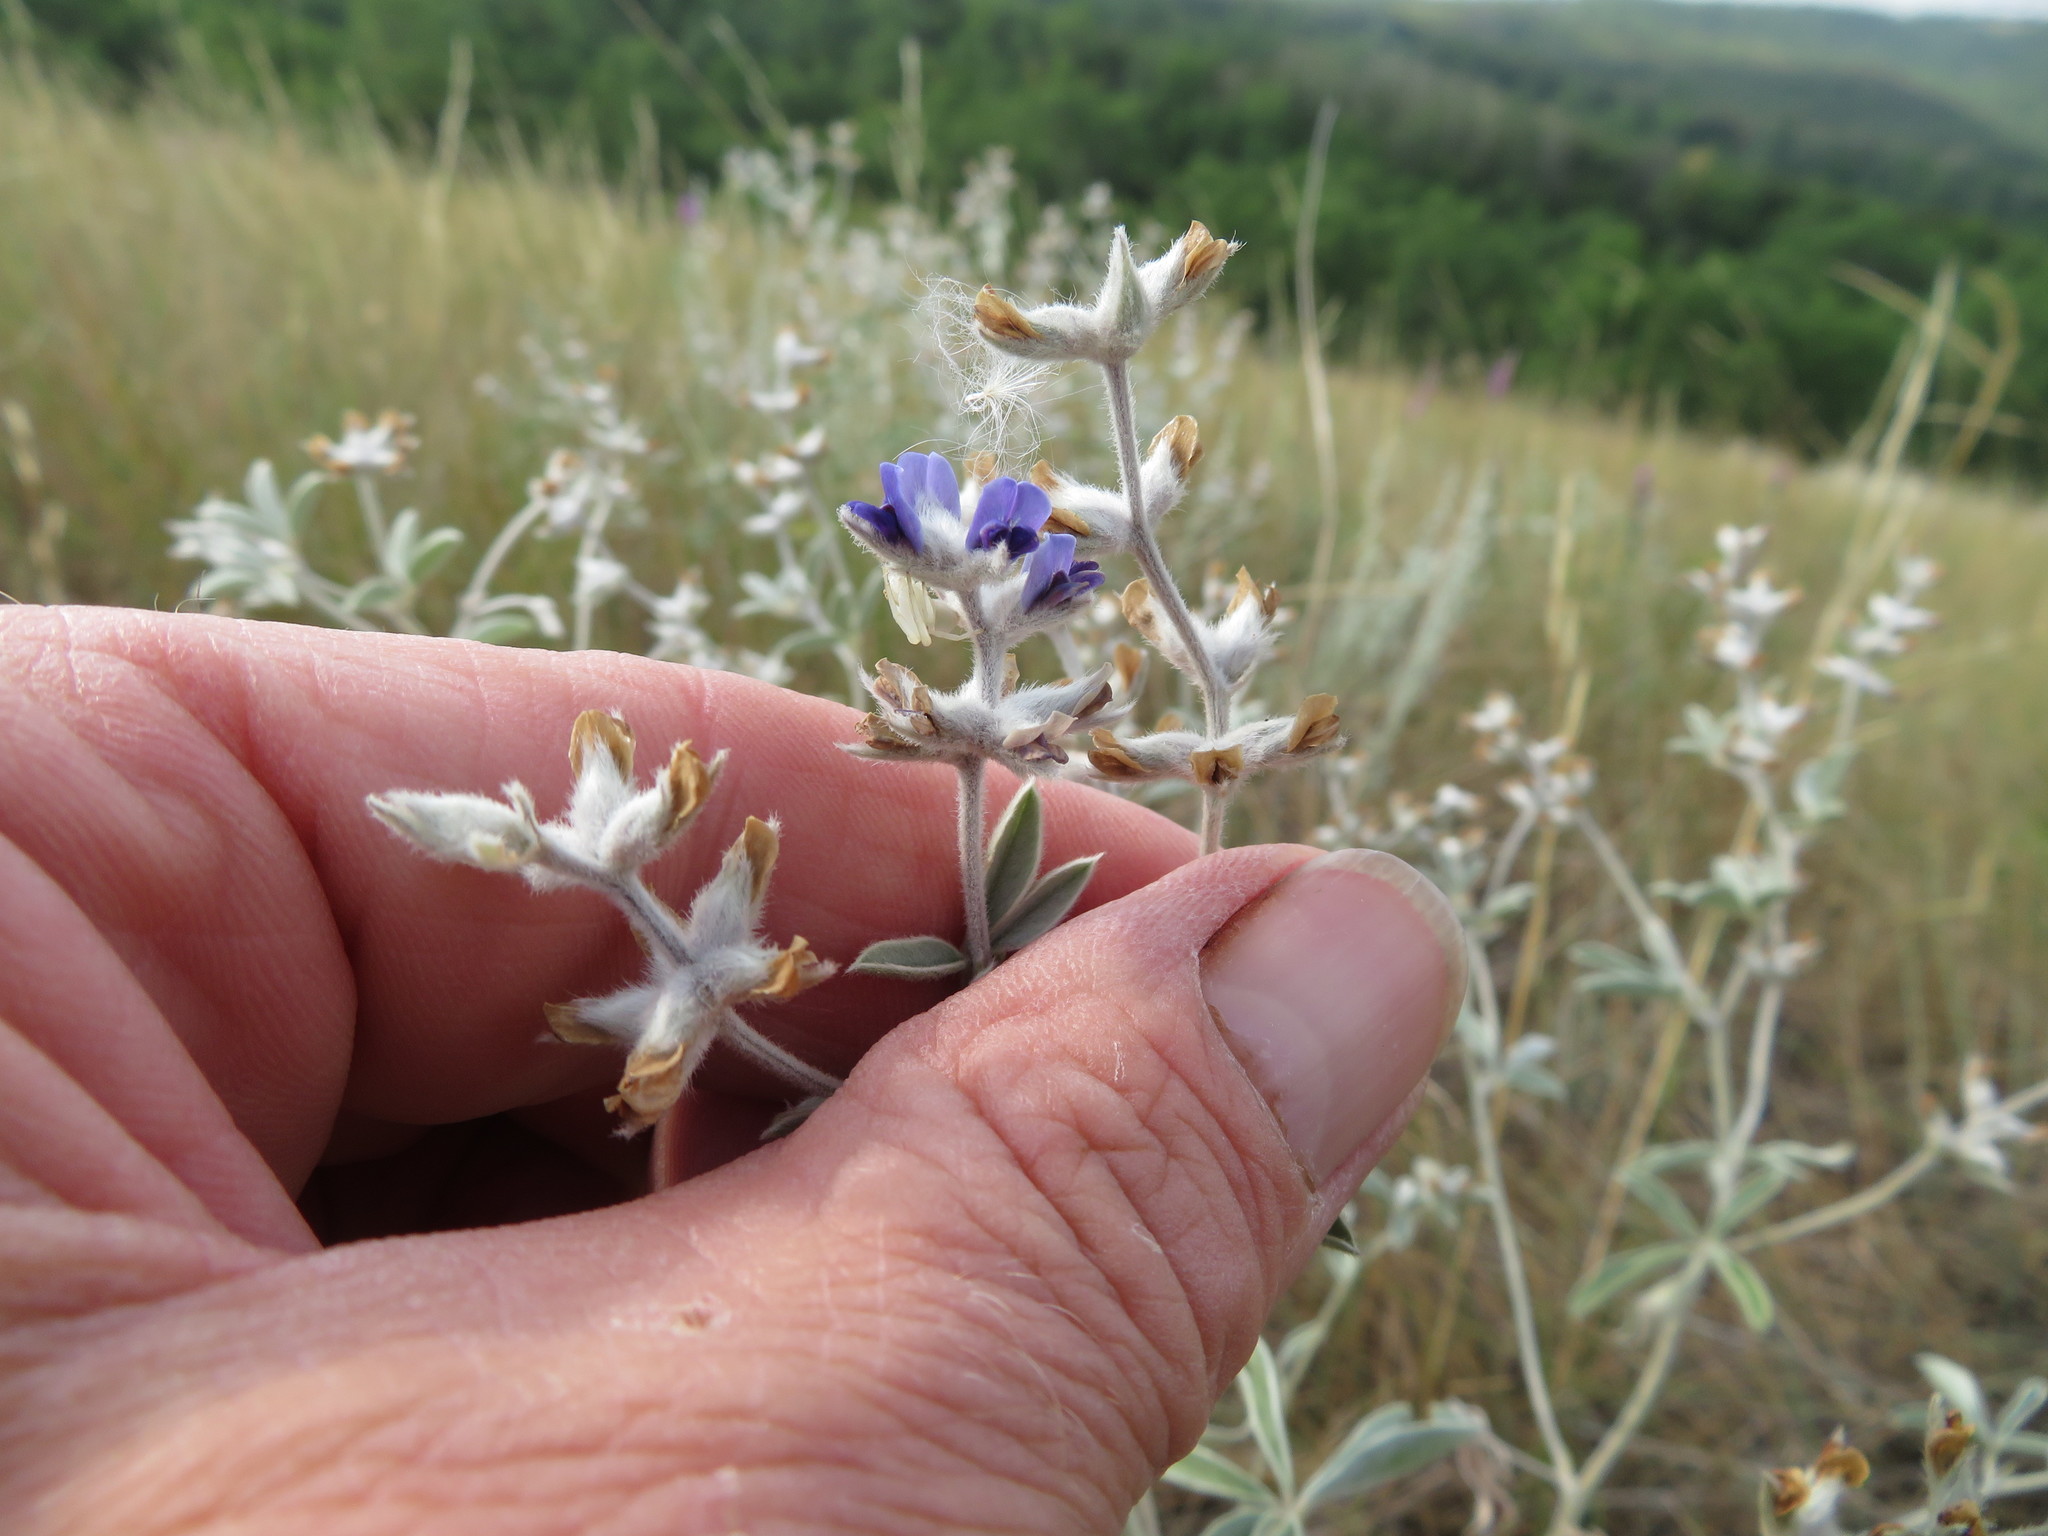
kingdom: Plantae
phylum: Tracheophyta
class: Magnoliopsida
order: Fabales
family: Fabaceae
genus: Pediomelum
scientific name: Pediomelum argophyllum
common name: Silver-leaved indian breadroot
